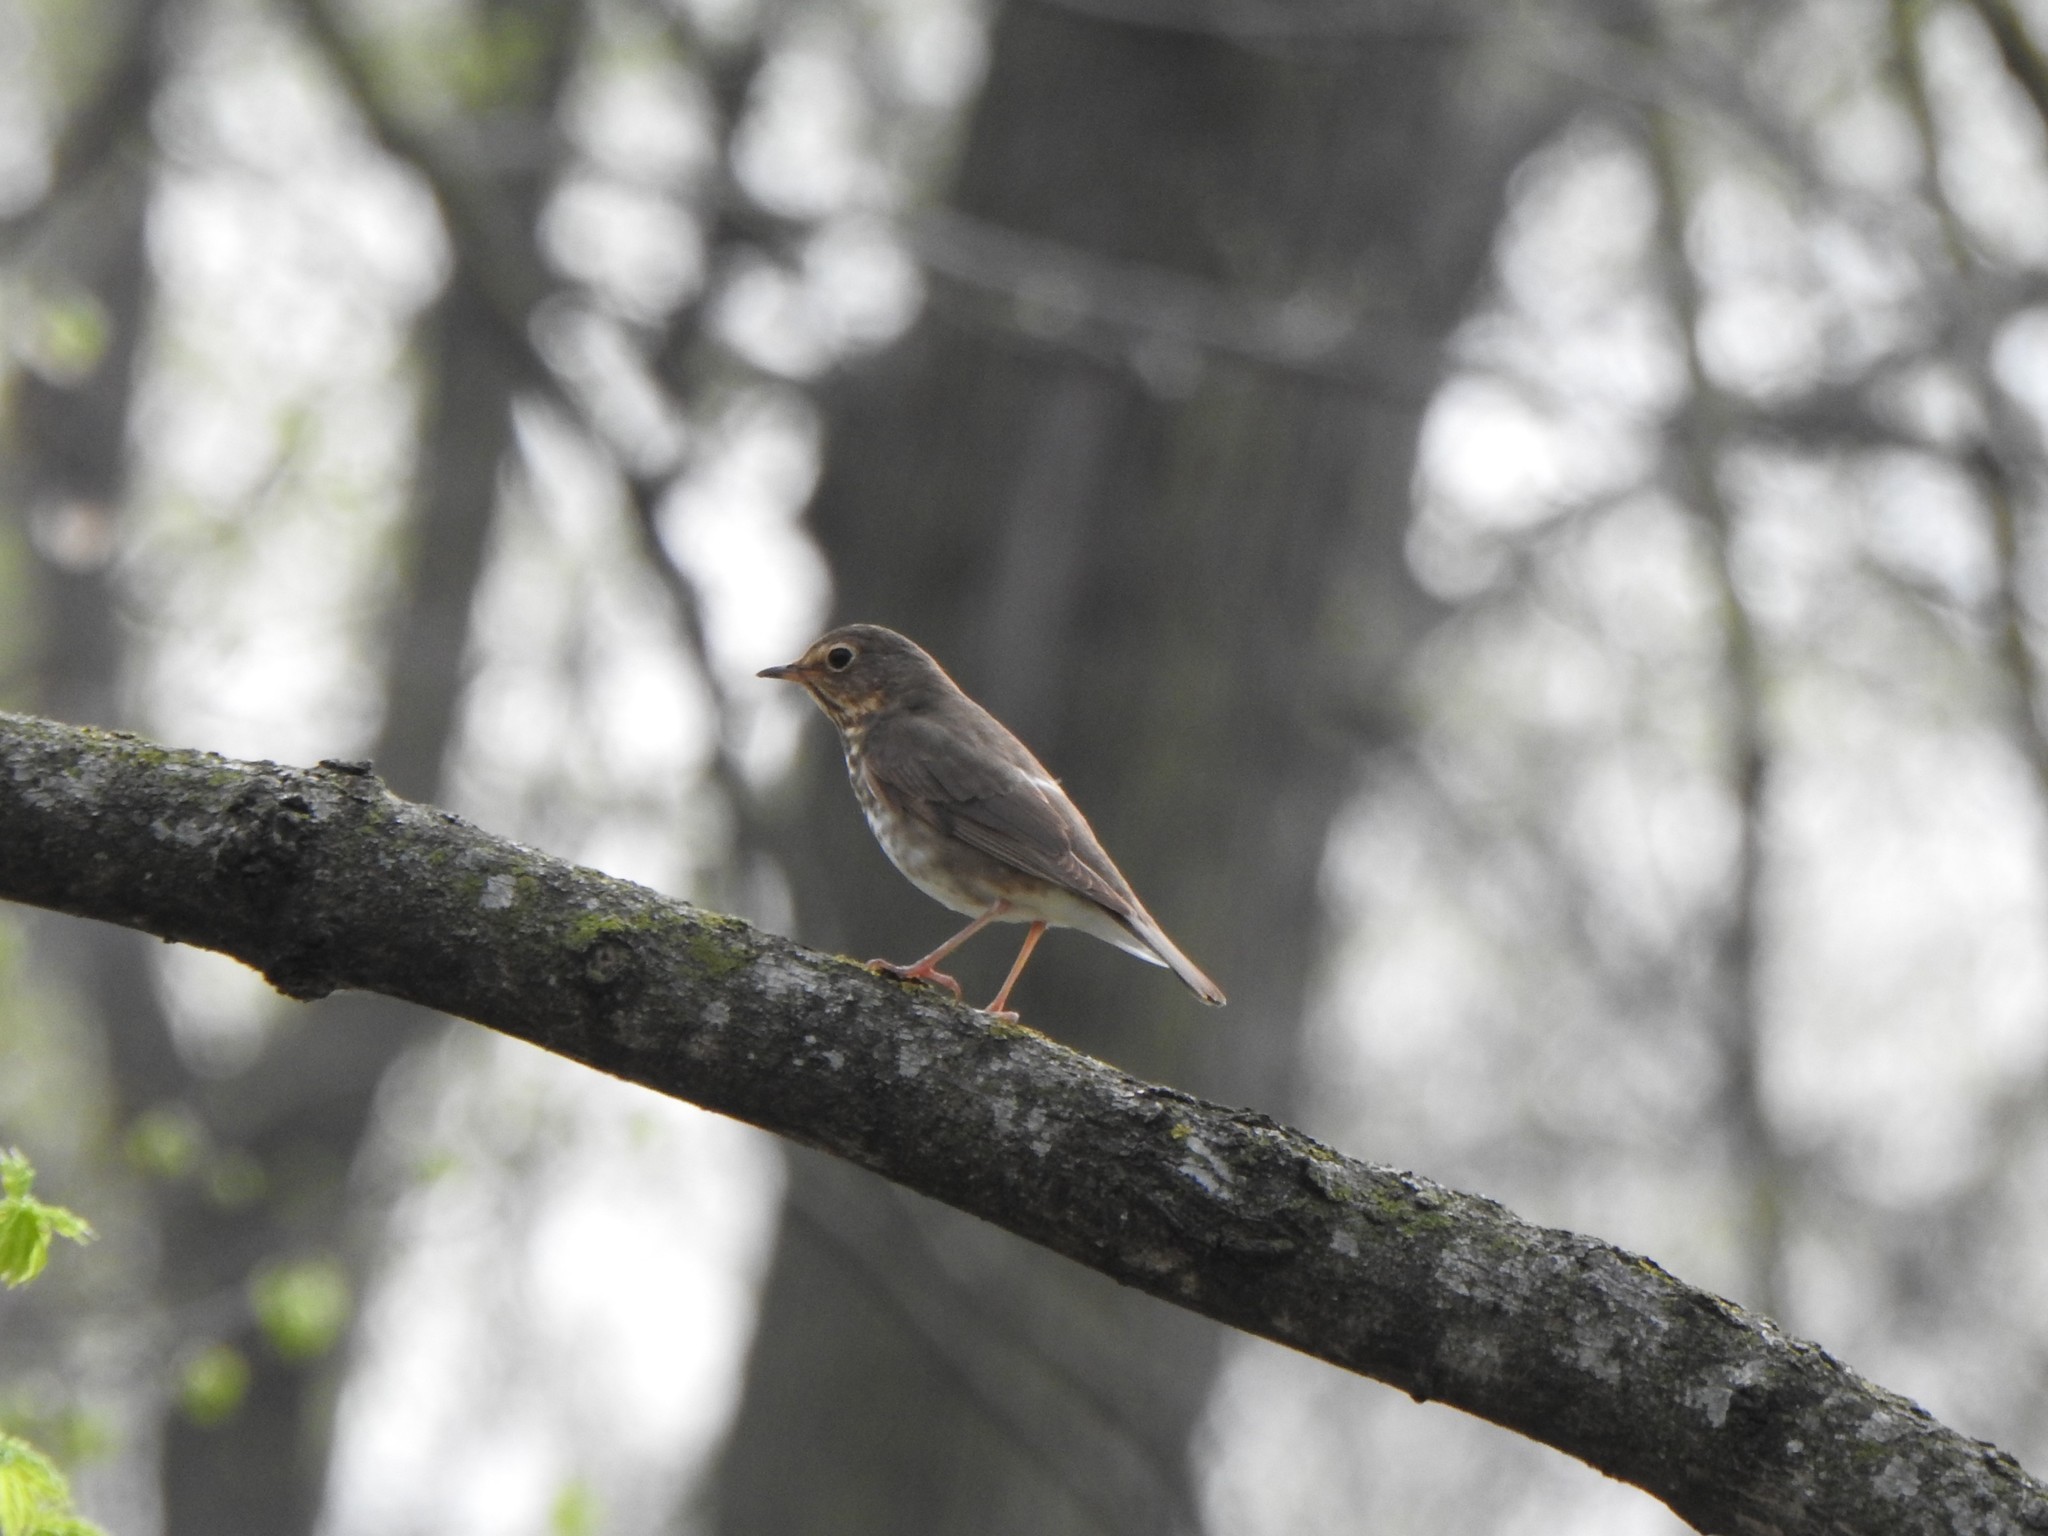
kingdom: Animalia
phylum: Chordata
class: Aves
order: Passeriformes
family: Turdidae
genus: Catharus
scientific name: Catharus ustulatus
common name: Swainson's thrush
